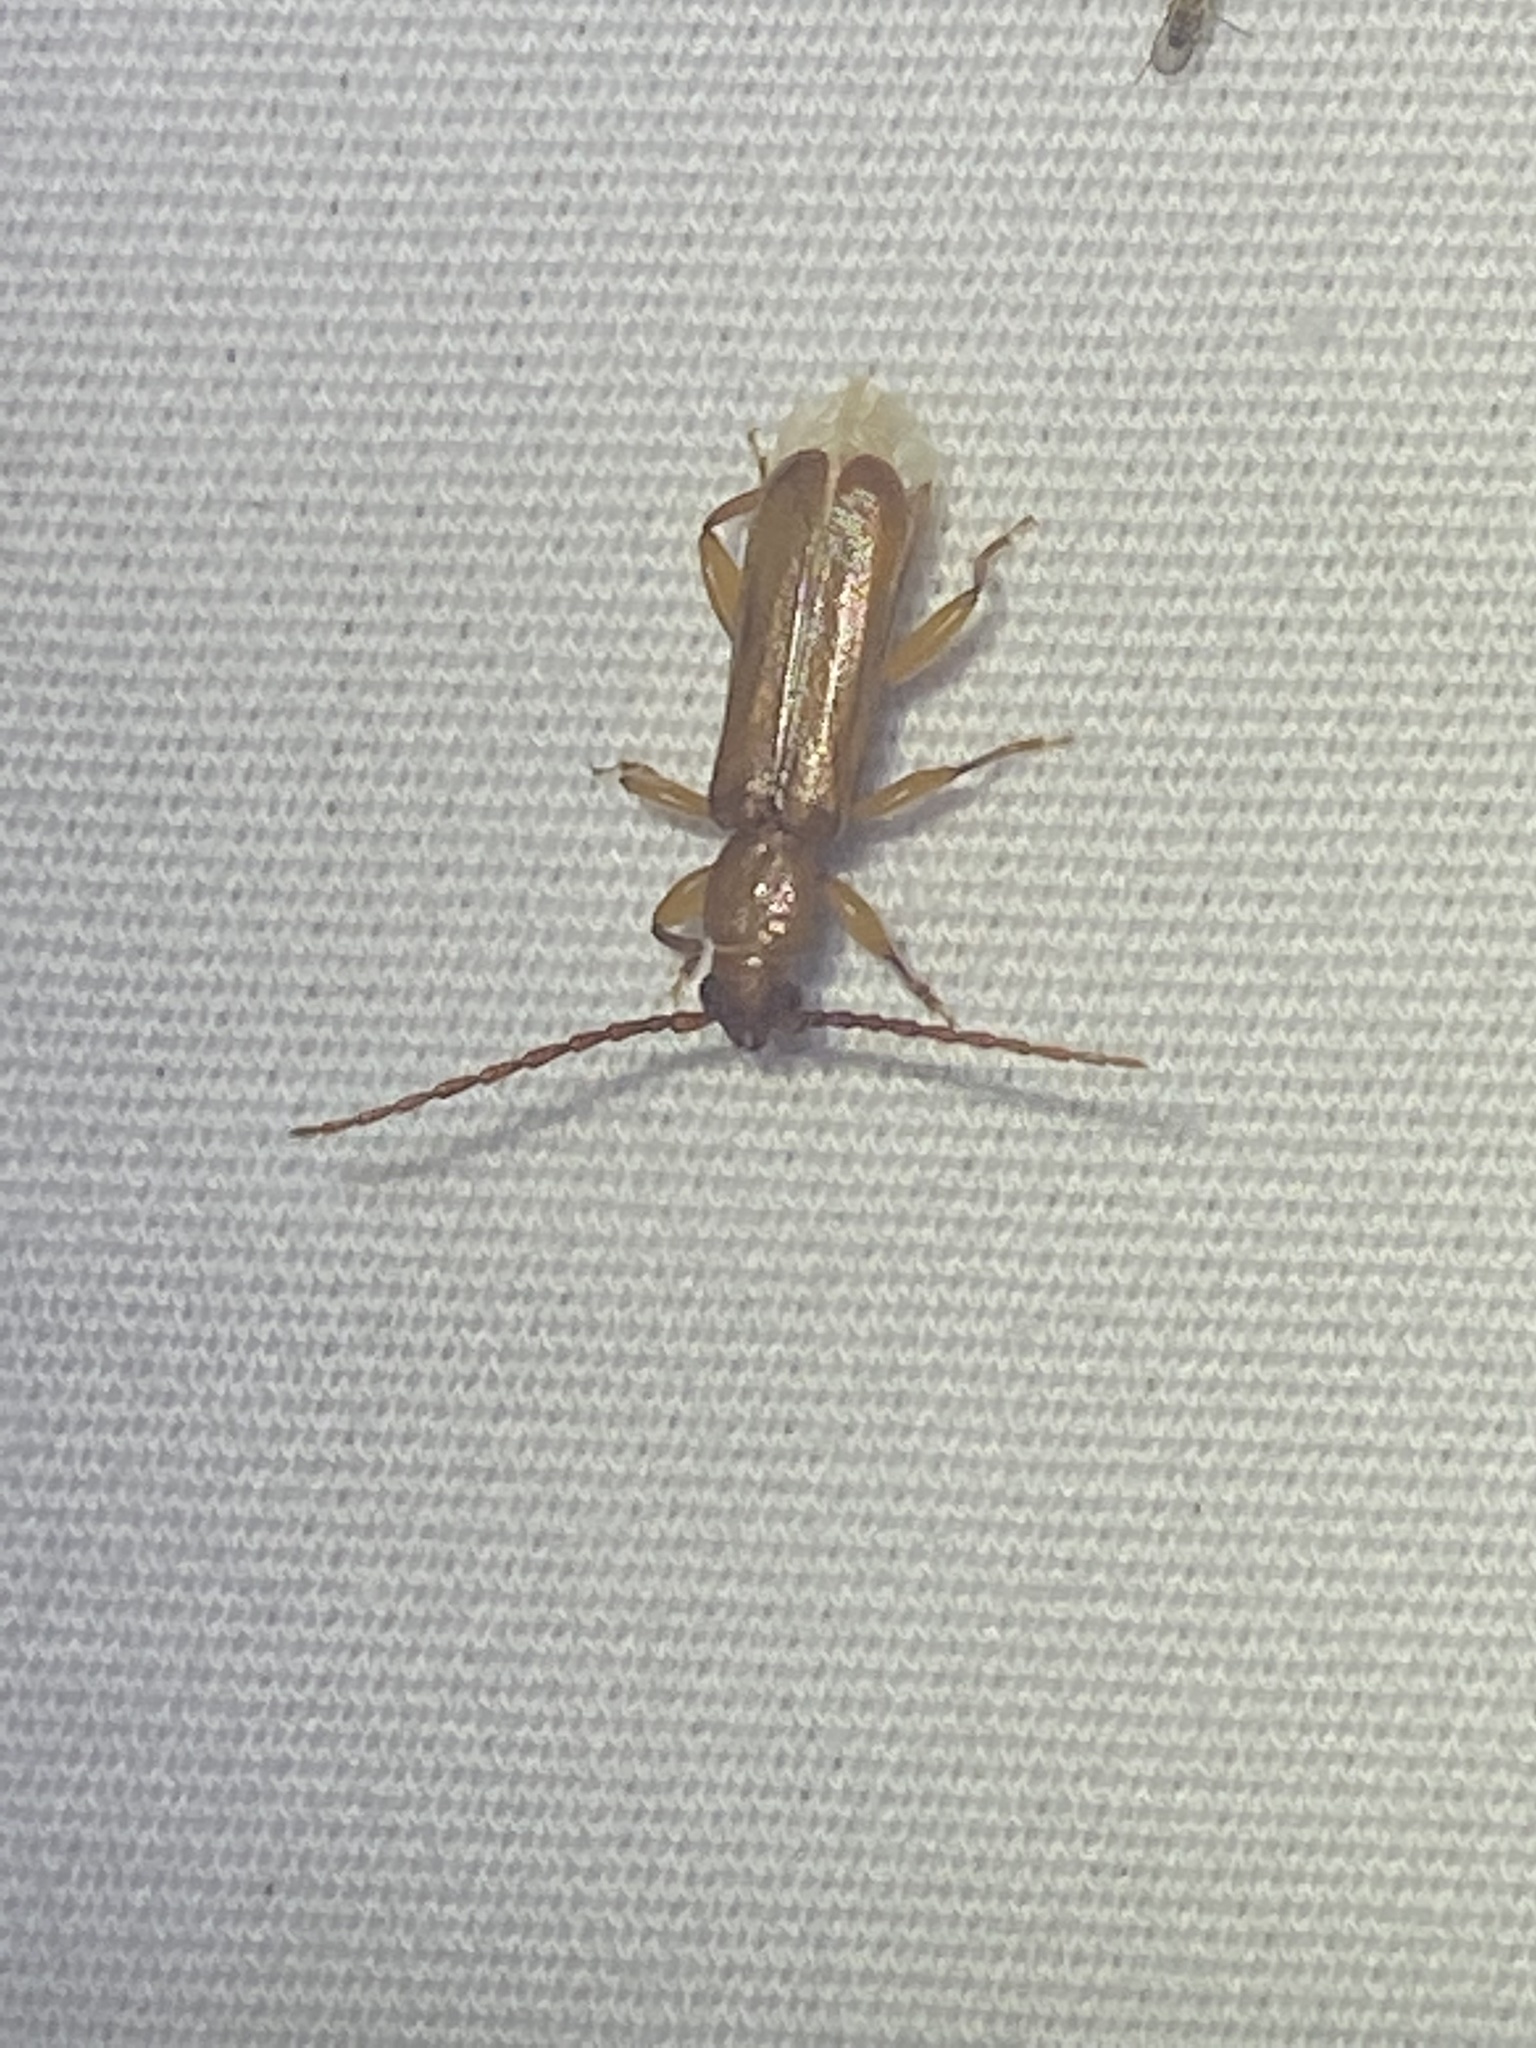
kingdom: Animalia
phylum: Arthropoda
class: Insecta
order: Coleoptera
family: Cerambycidae
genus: Smodicum
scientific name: Smodicum cucujiforme
